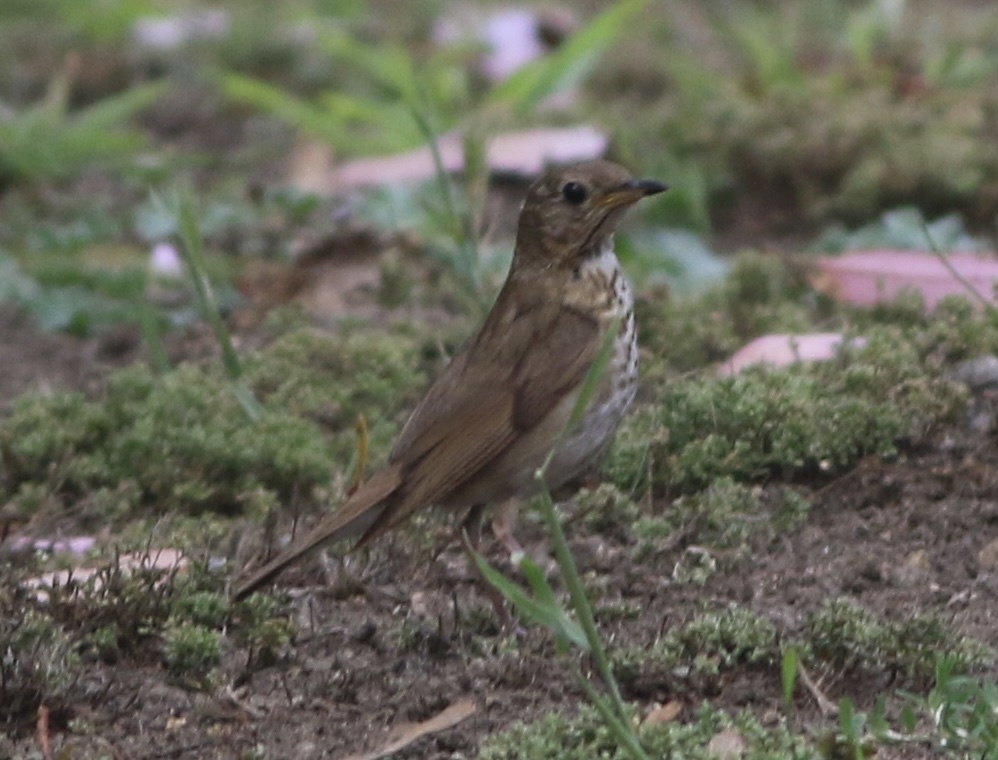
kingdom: Animalia
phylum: Chordata
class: Aves
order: Passeriformes
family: Turdidae
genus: Catharus
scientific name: Catharus guttatus
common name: Hermit thrush
